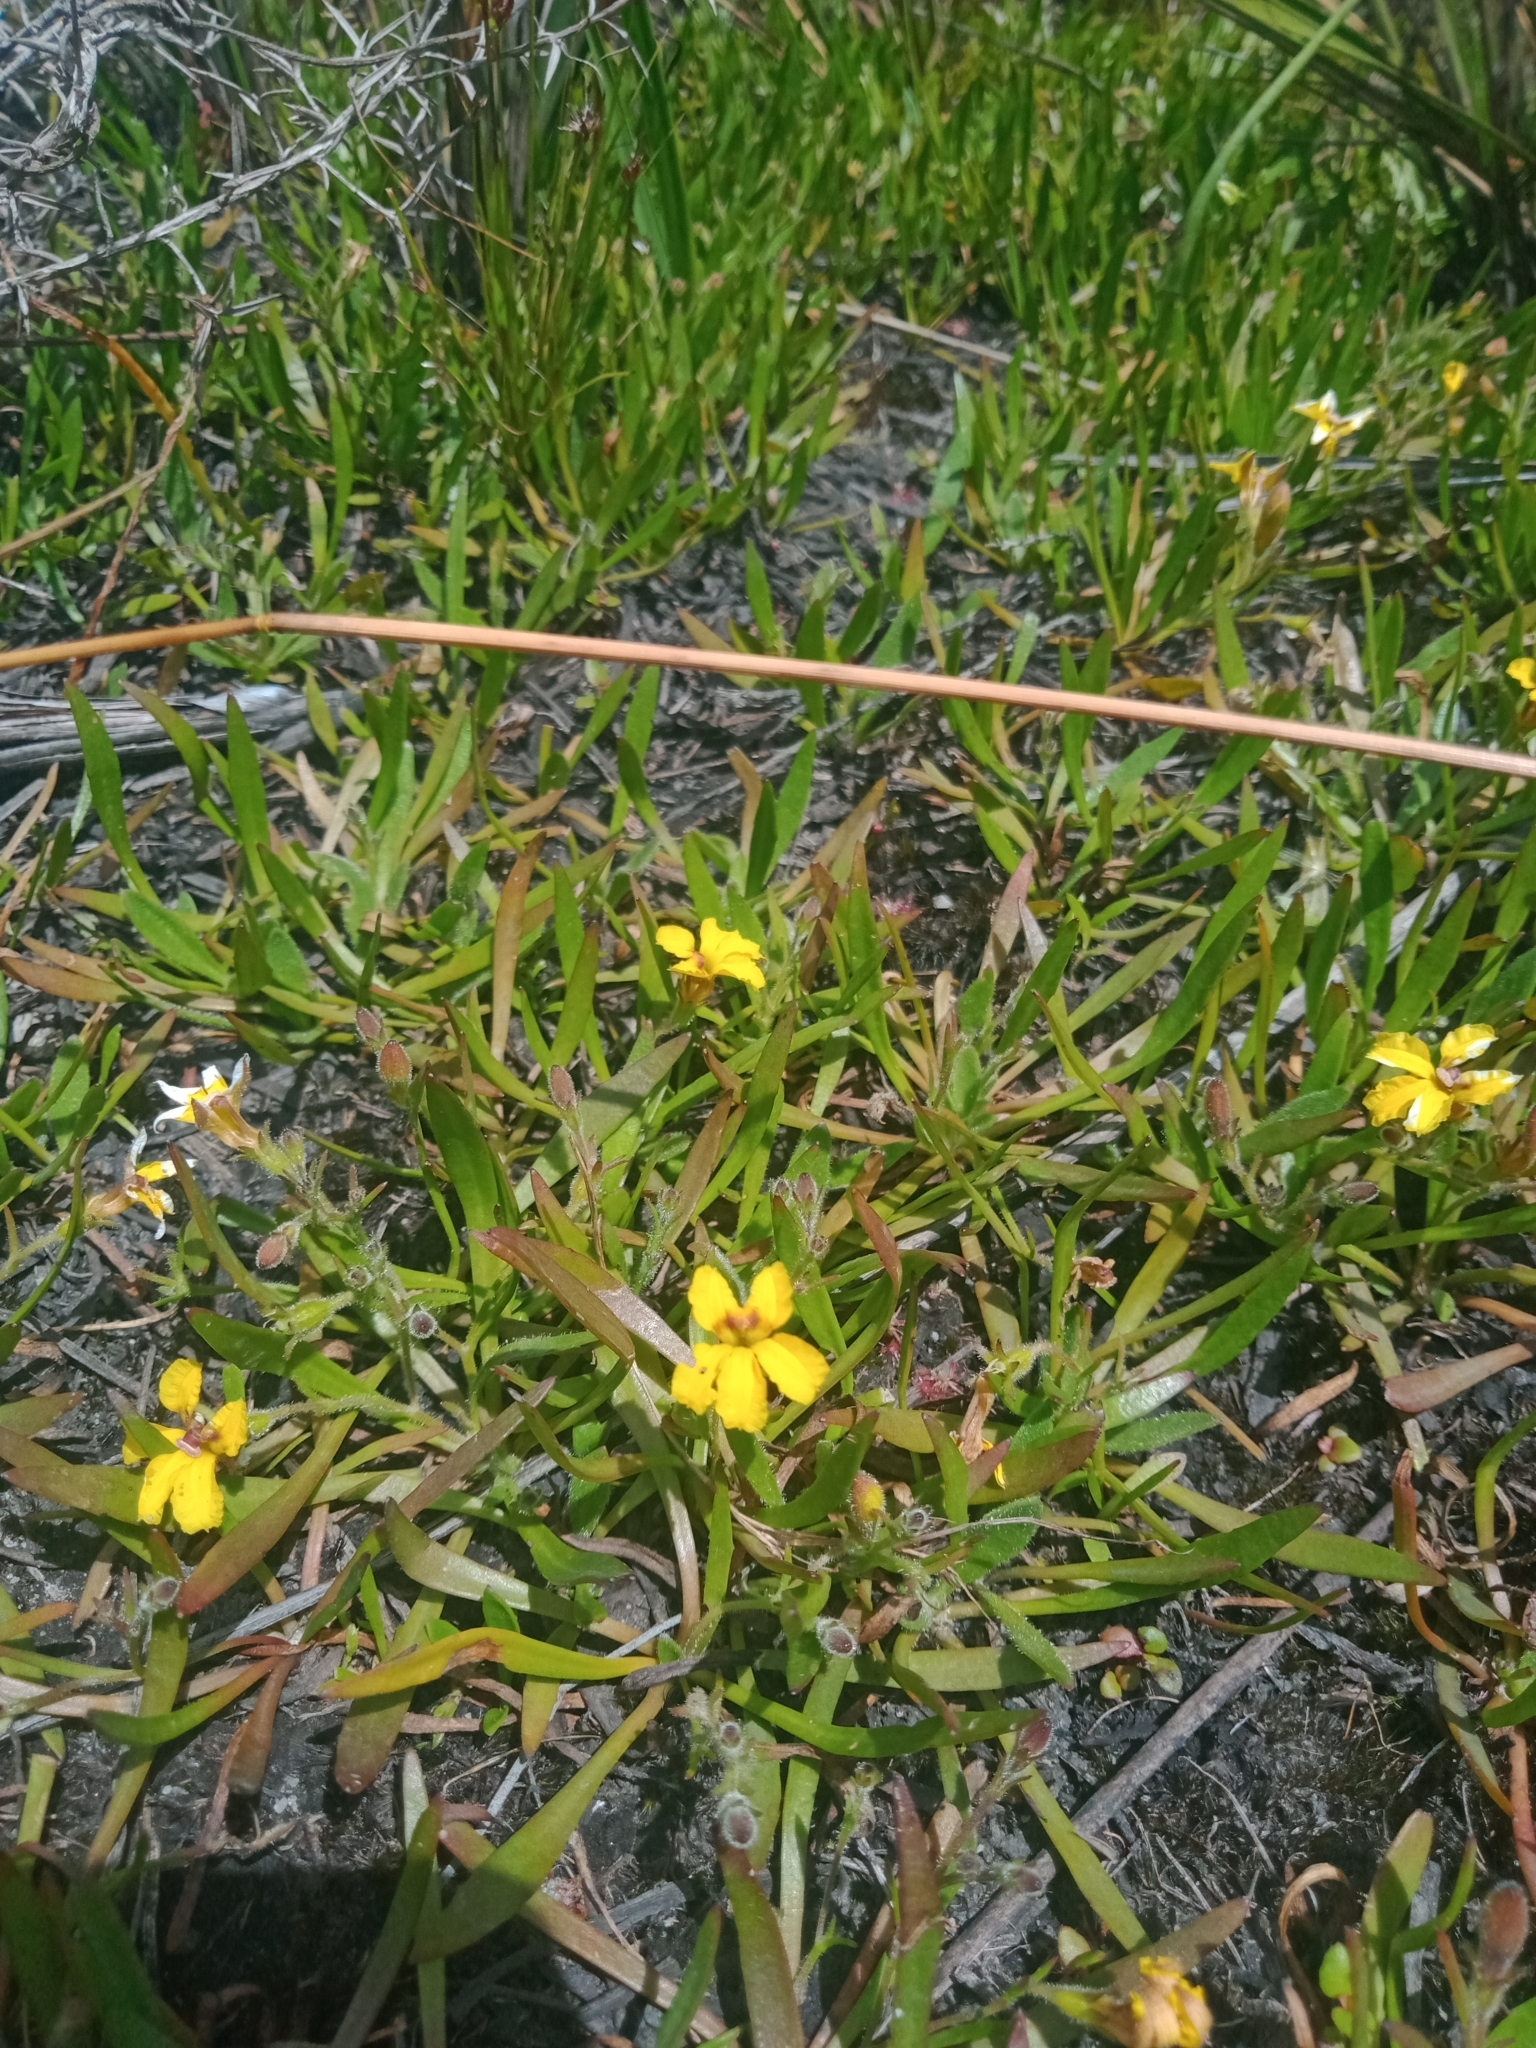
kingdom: Plantae
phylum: Tracheophyta
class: Magnoliopsida
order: Asterales
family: Goodeniaceae
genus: Goodenia
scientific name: Goodenia humilis
